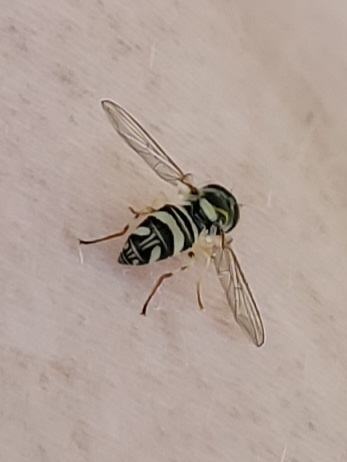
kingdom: Animalia
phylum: Arthropoda
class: Insecta
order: Diptera
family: Syrphidae
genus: Allograpta
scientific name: Allograpta exotica
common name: Syrphid fly
